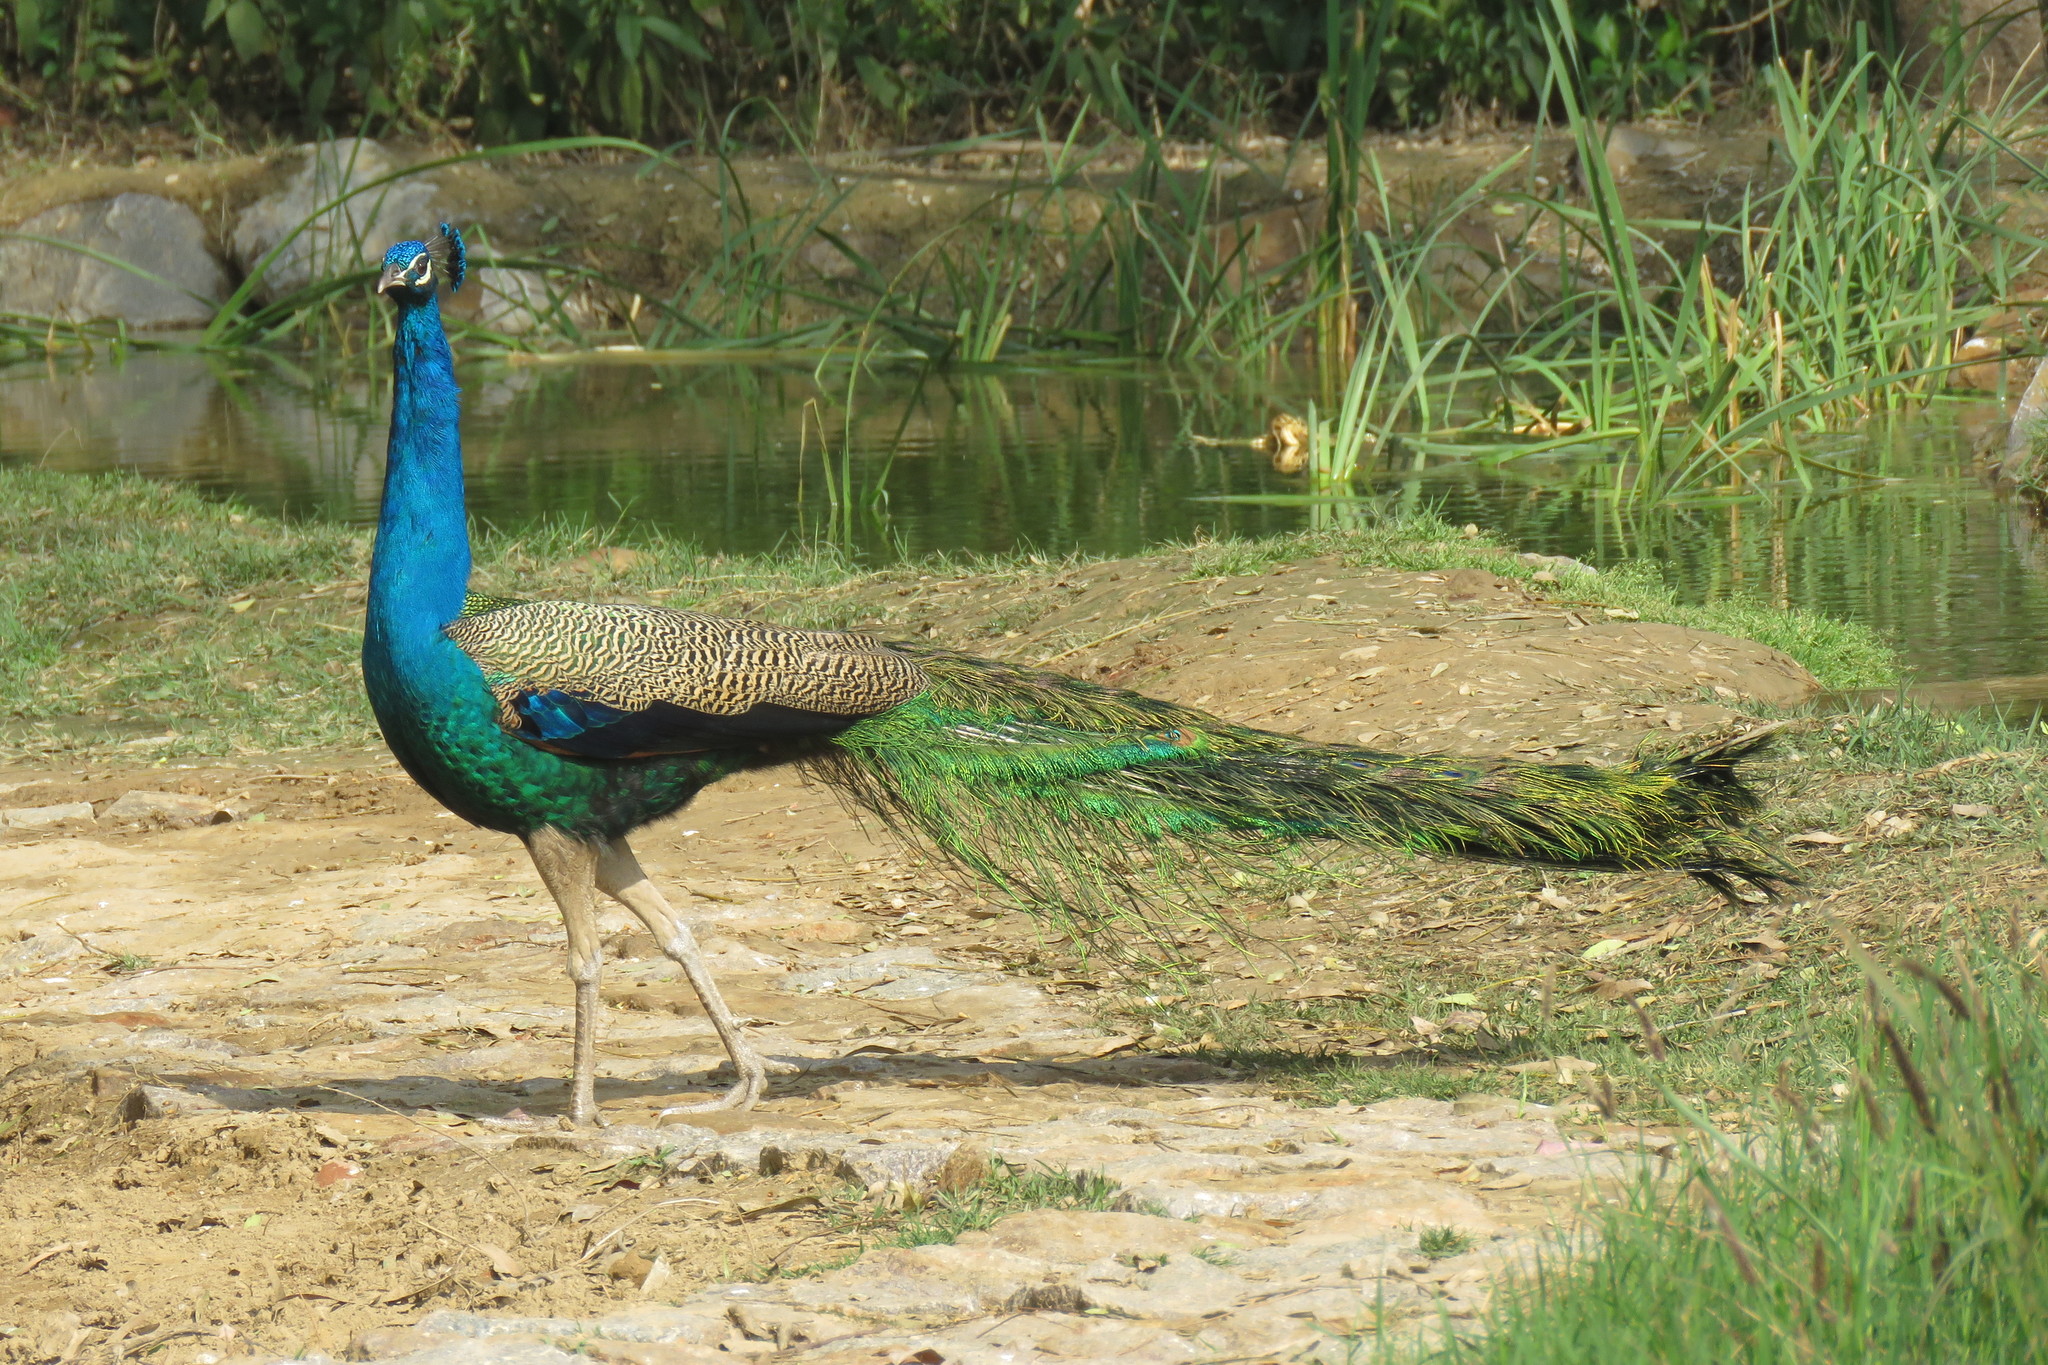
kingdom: Animalia
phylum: Chordata
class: Aves
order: Galliformes
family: Phasianidae
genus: Pavo
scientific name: Pavo cristatus
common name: Indian peafowl
